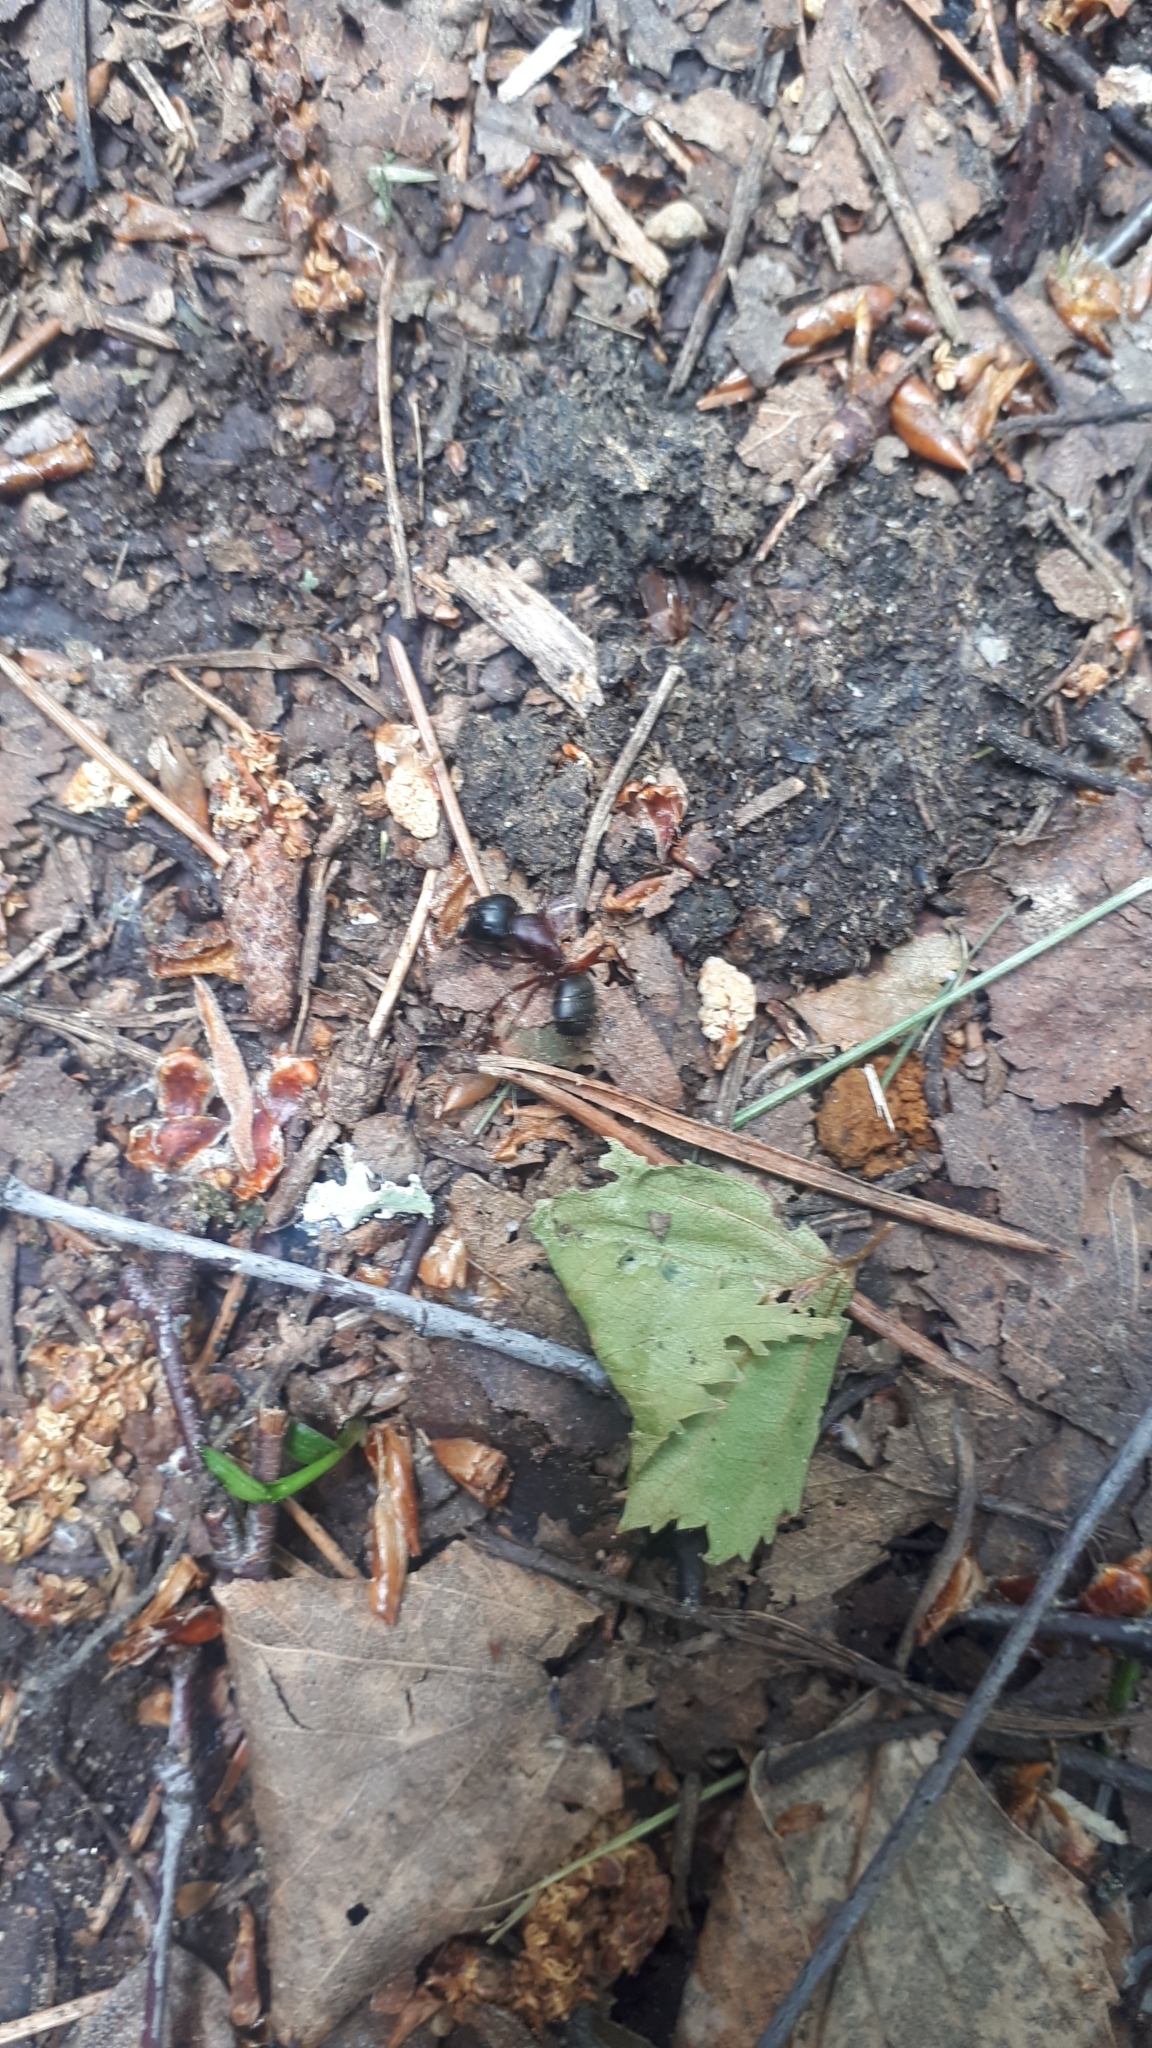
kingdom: Animalia
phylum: Arthropoda
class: Insecta
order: Hymenoptera
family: Formicidae
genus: Camponotus
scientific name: Camponotus herculeanus
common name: Hercules ant
